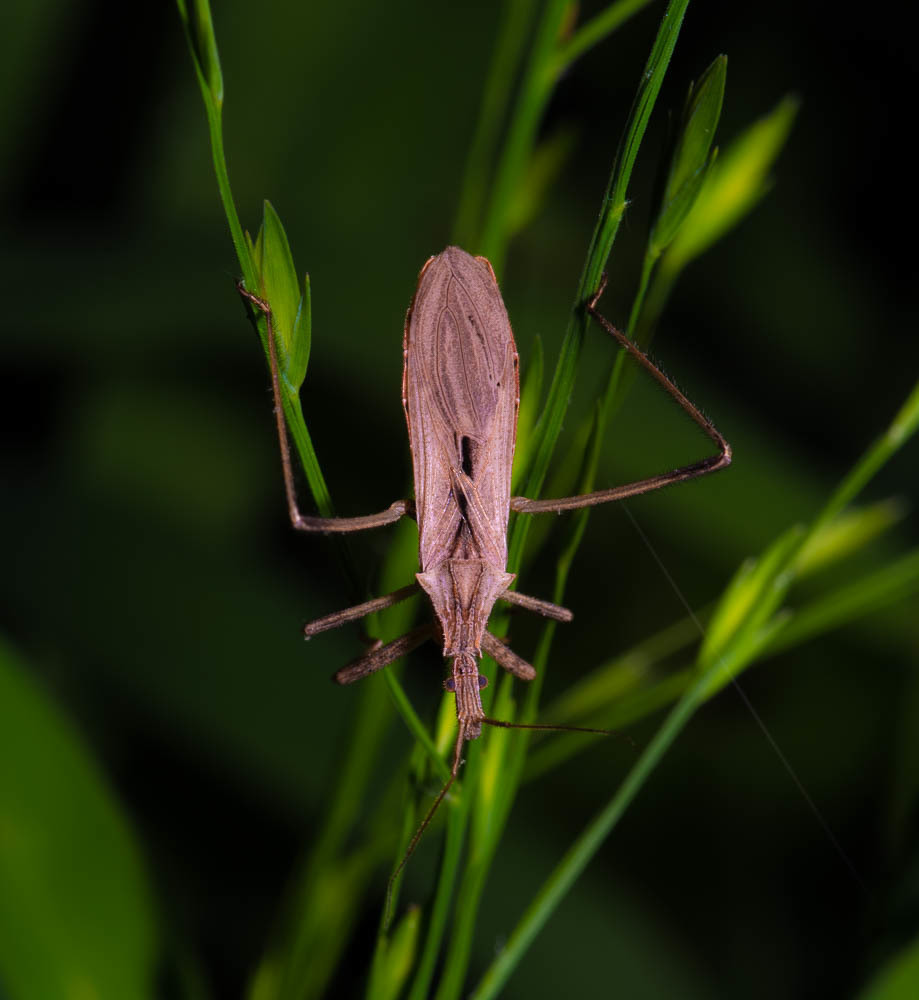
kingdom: Animalia
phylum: Arthropoda
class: Insecta
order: Hemiptera
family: Reduviidae
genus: Stenopoda
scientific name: Stenopoda spinulosa
